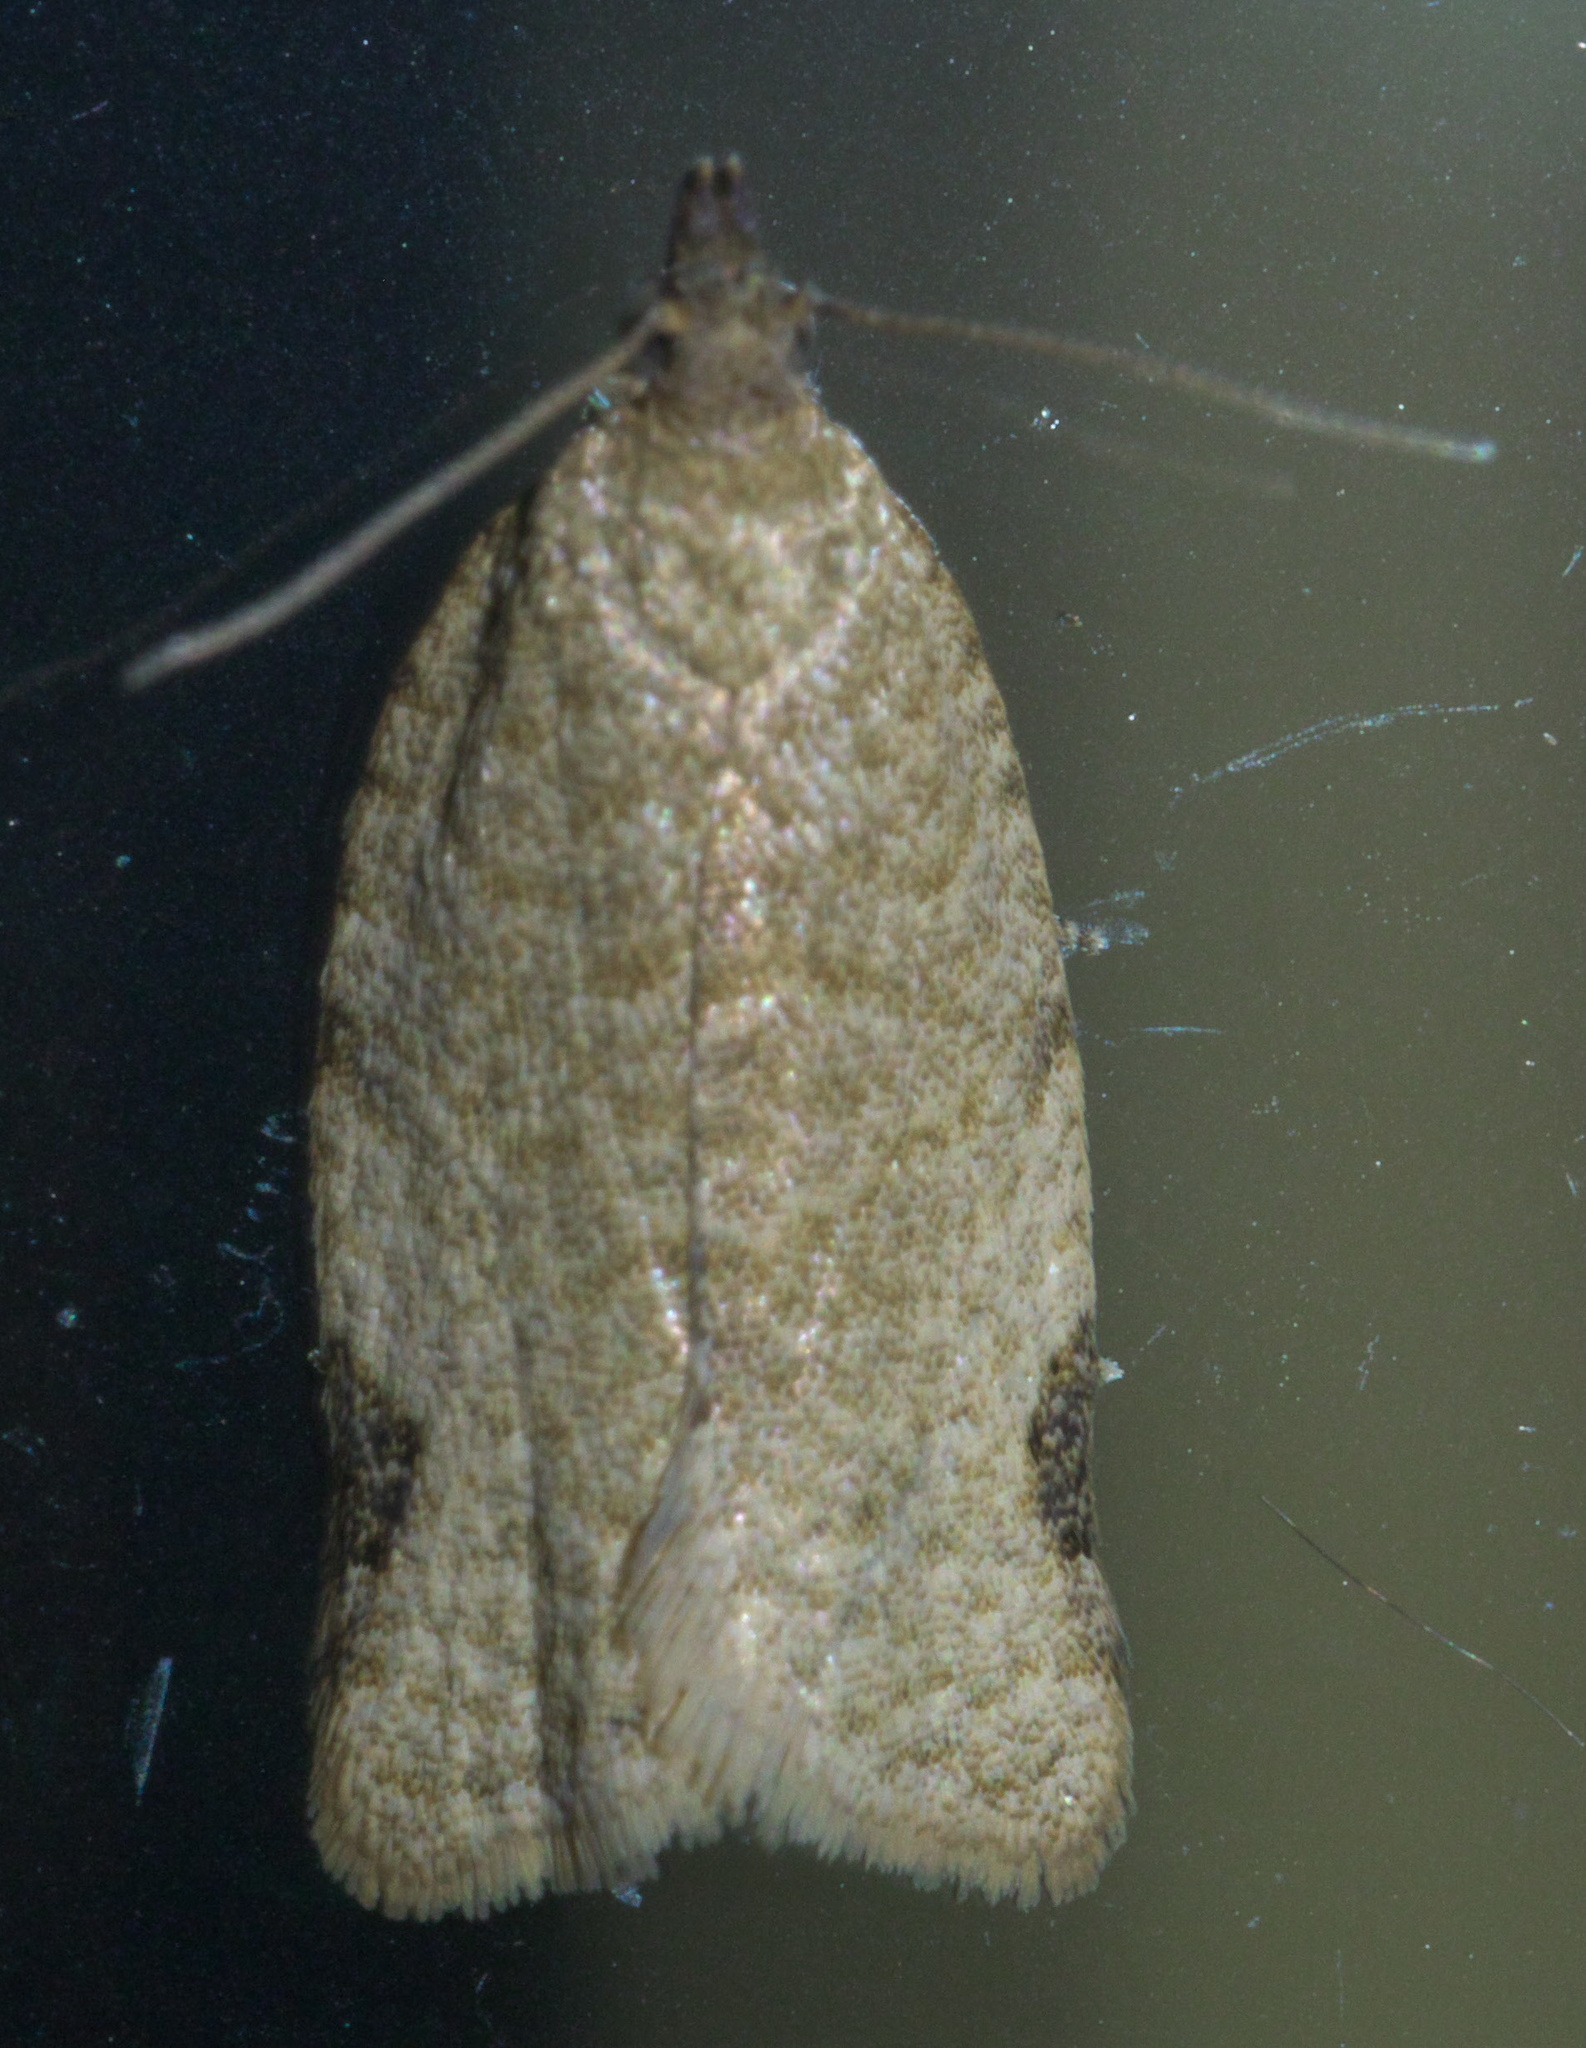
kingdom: Animalia
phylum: Arthropoda
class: Insecta
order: Lepidoptera
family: Tortricidae
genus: Clepsis
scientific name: Clepsis virescana
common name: Greenish apple moth
